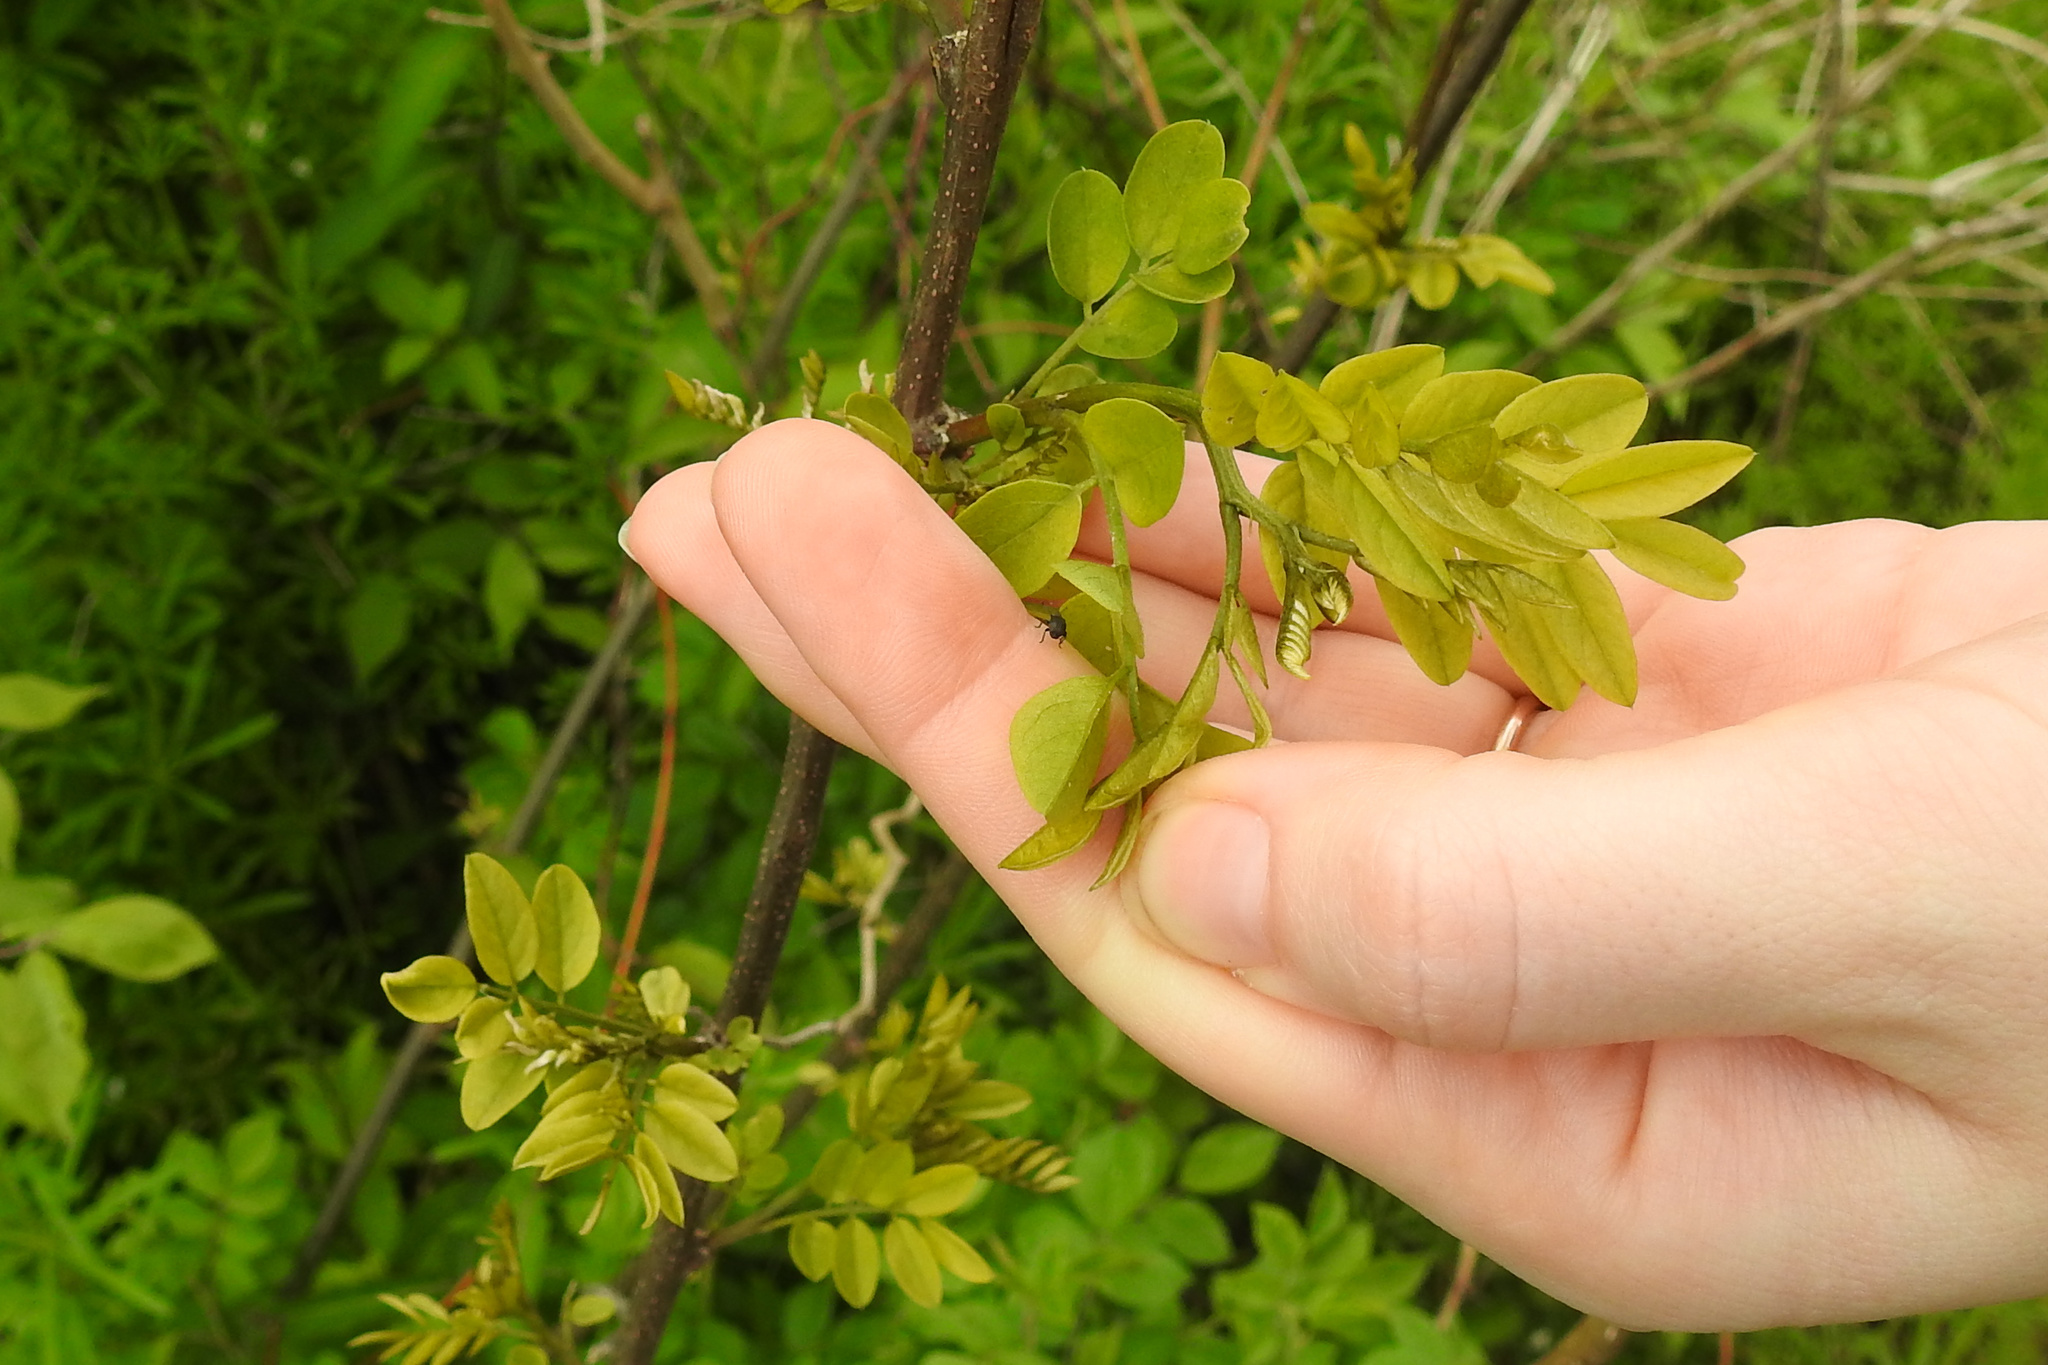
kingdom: Plantae
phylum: Tracheophyta
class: Magnoliopsida
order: Fabales
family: Fabaceae
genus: Robinia
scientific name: Robinia pseudoacacia
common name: Black locust
